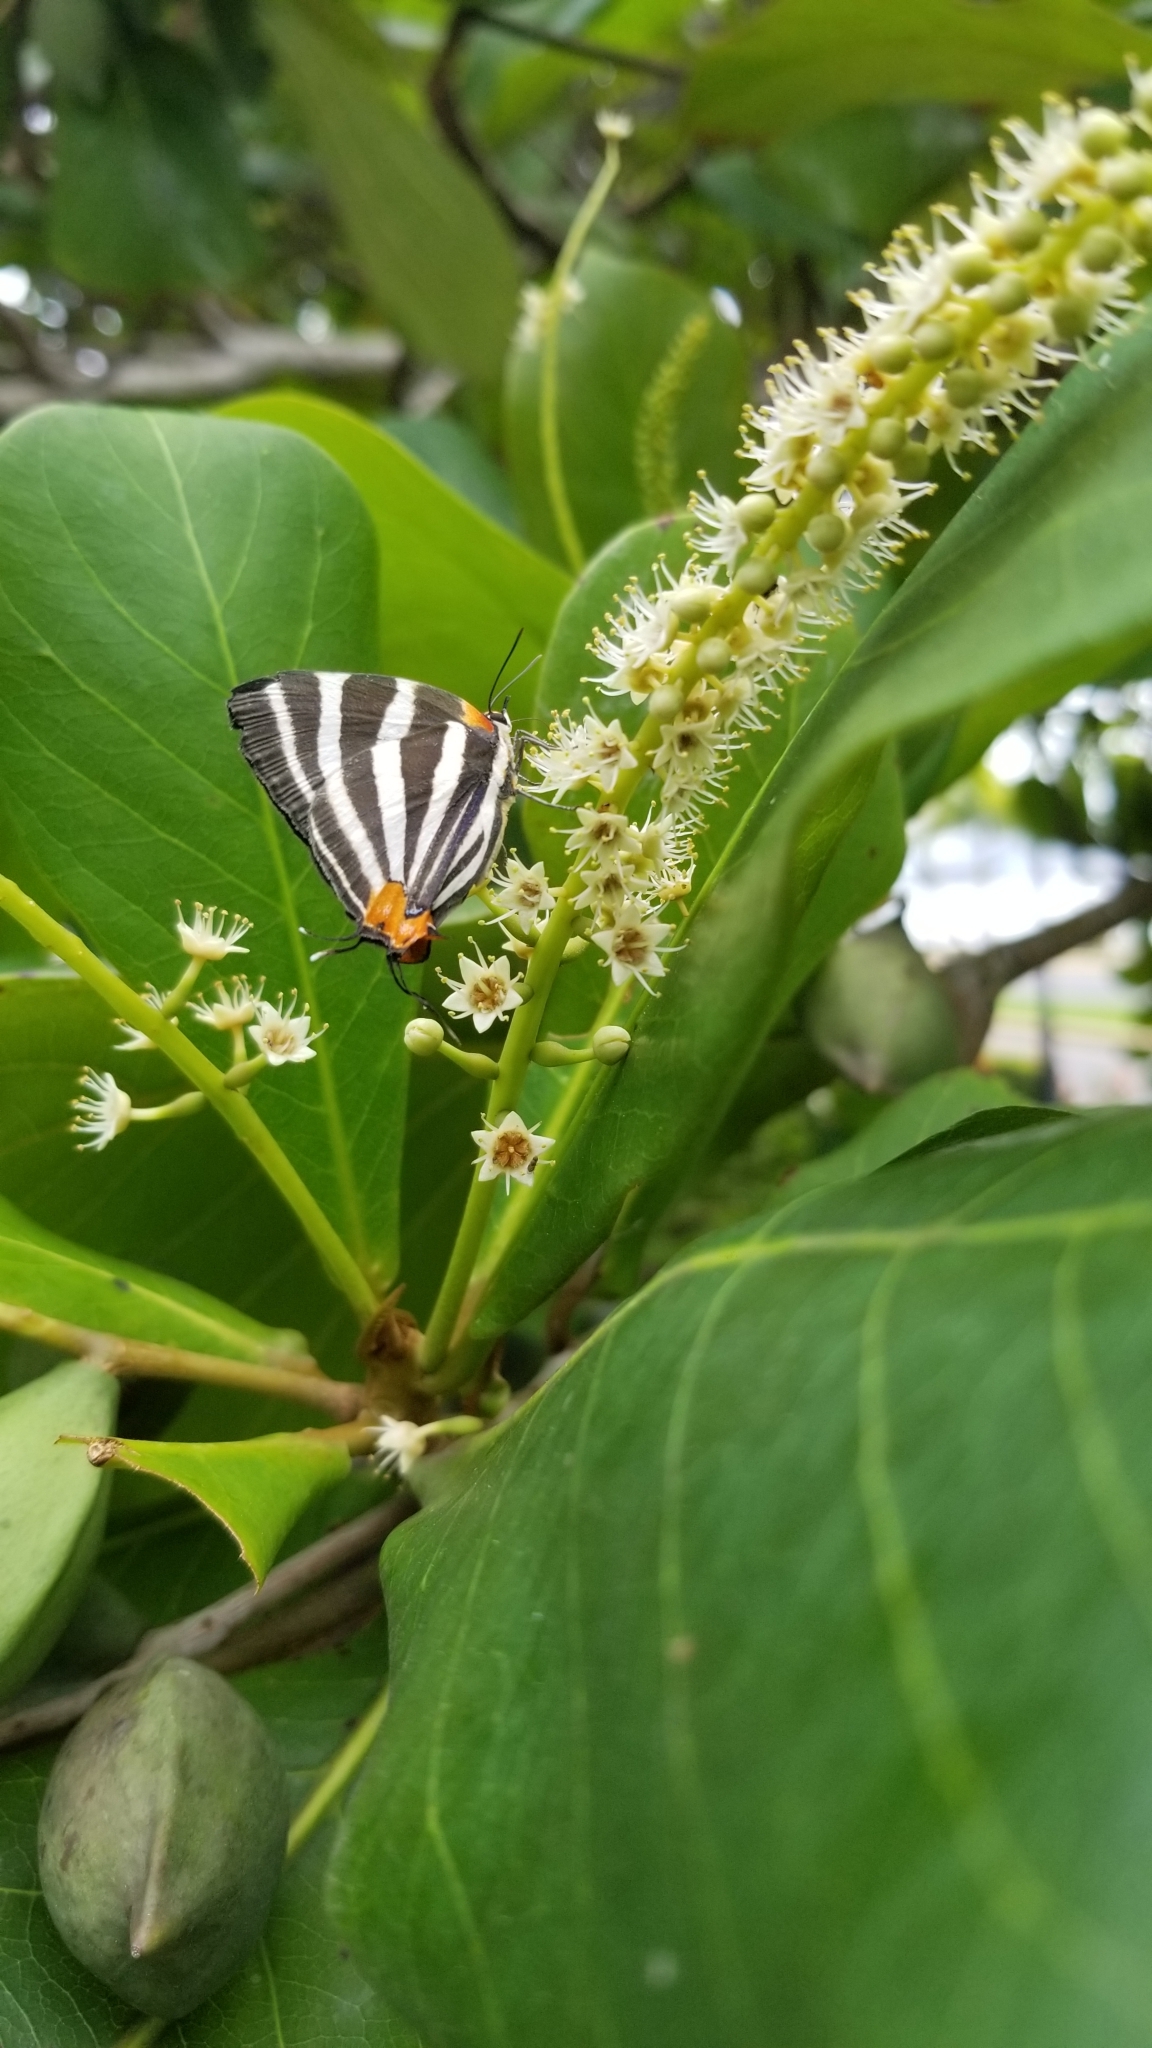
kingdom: Animalia
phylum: Arthropoda
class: Insecta
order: Lepidoptera
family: Lycaenidae
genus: Thecla
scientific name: Thecla bathildis
